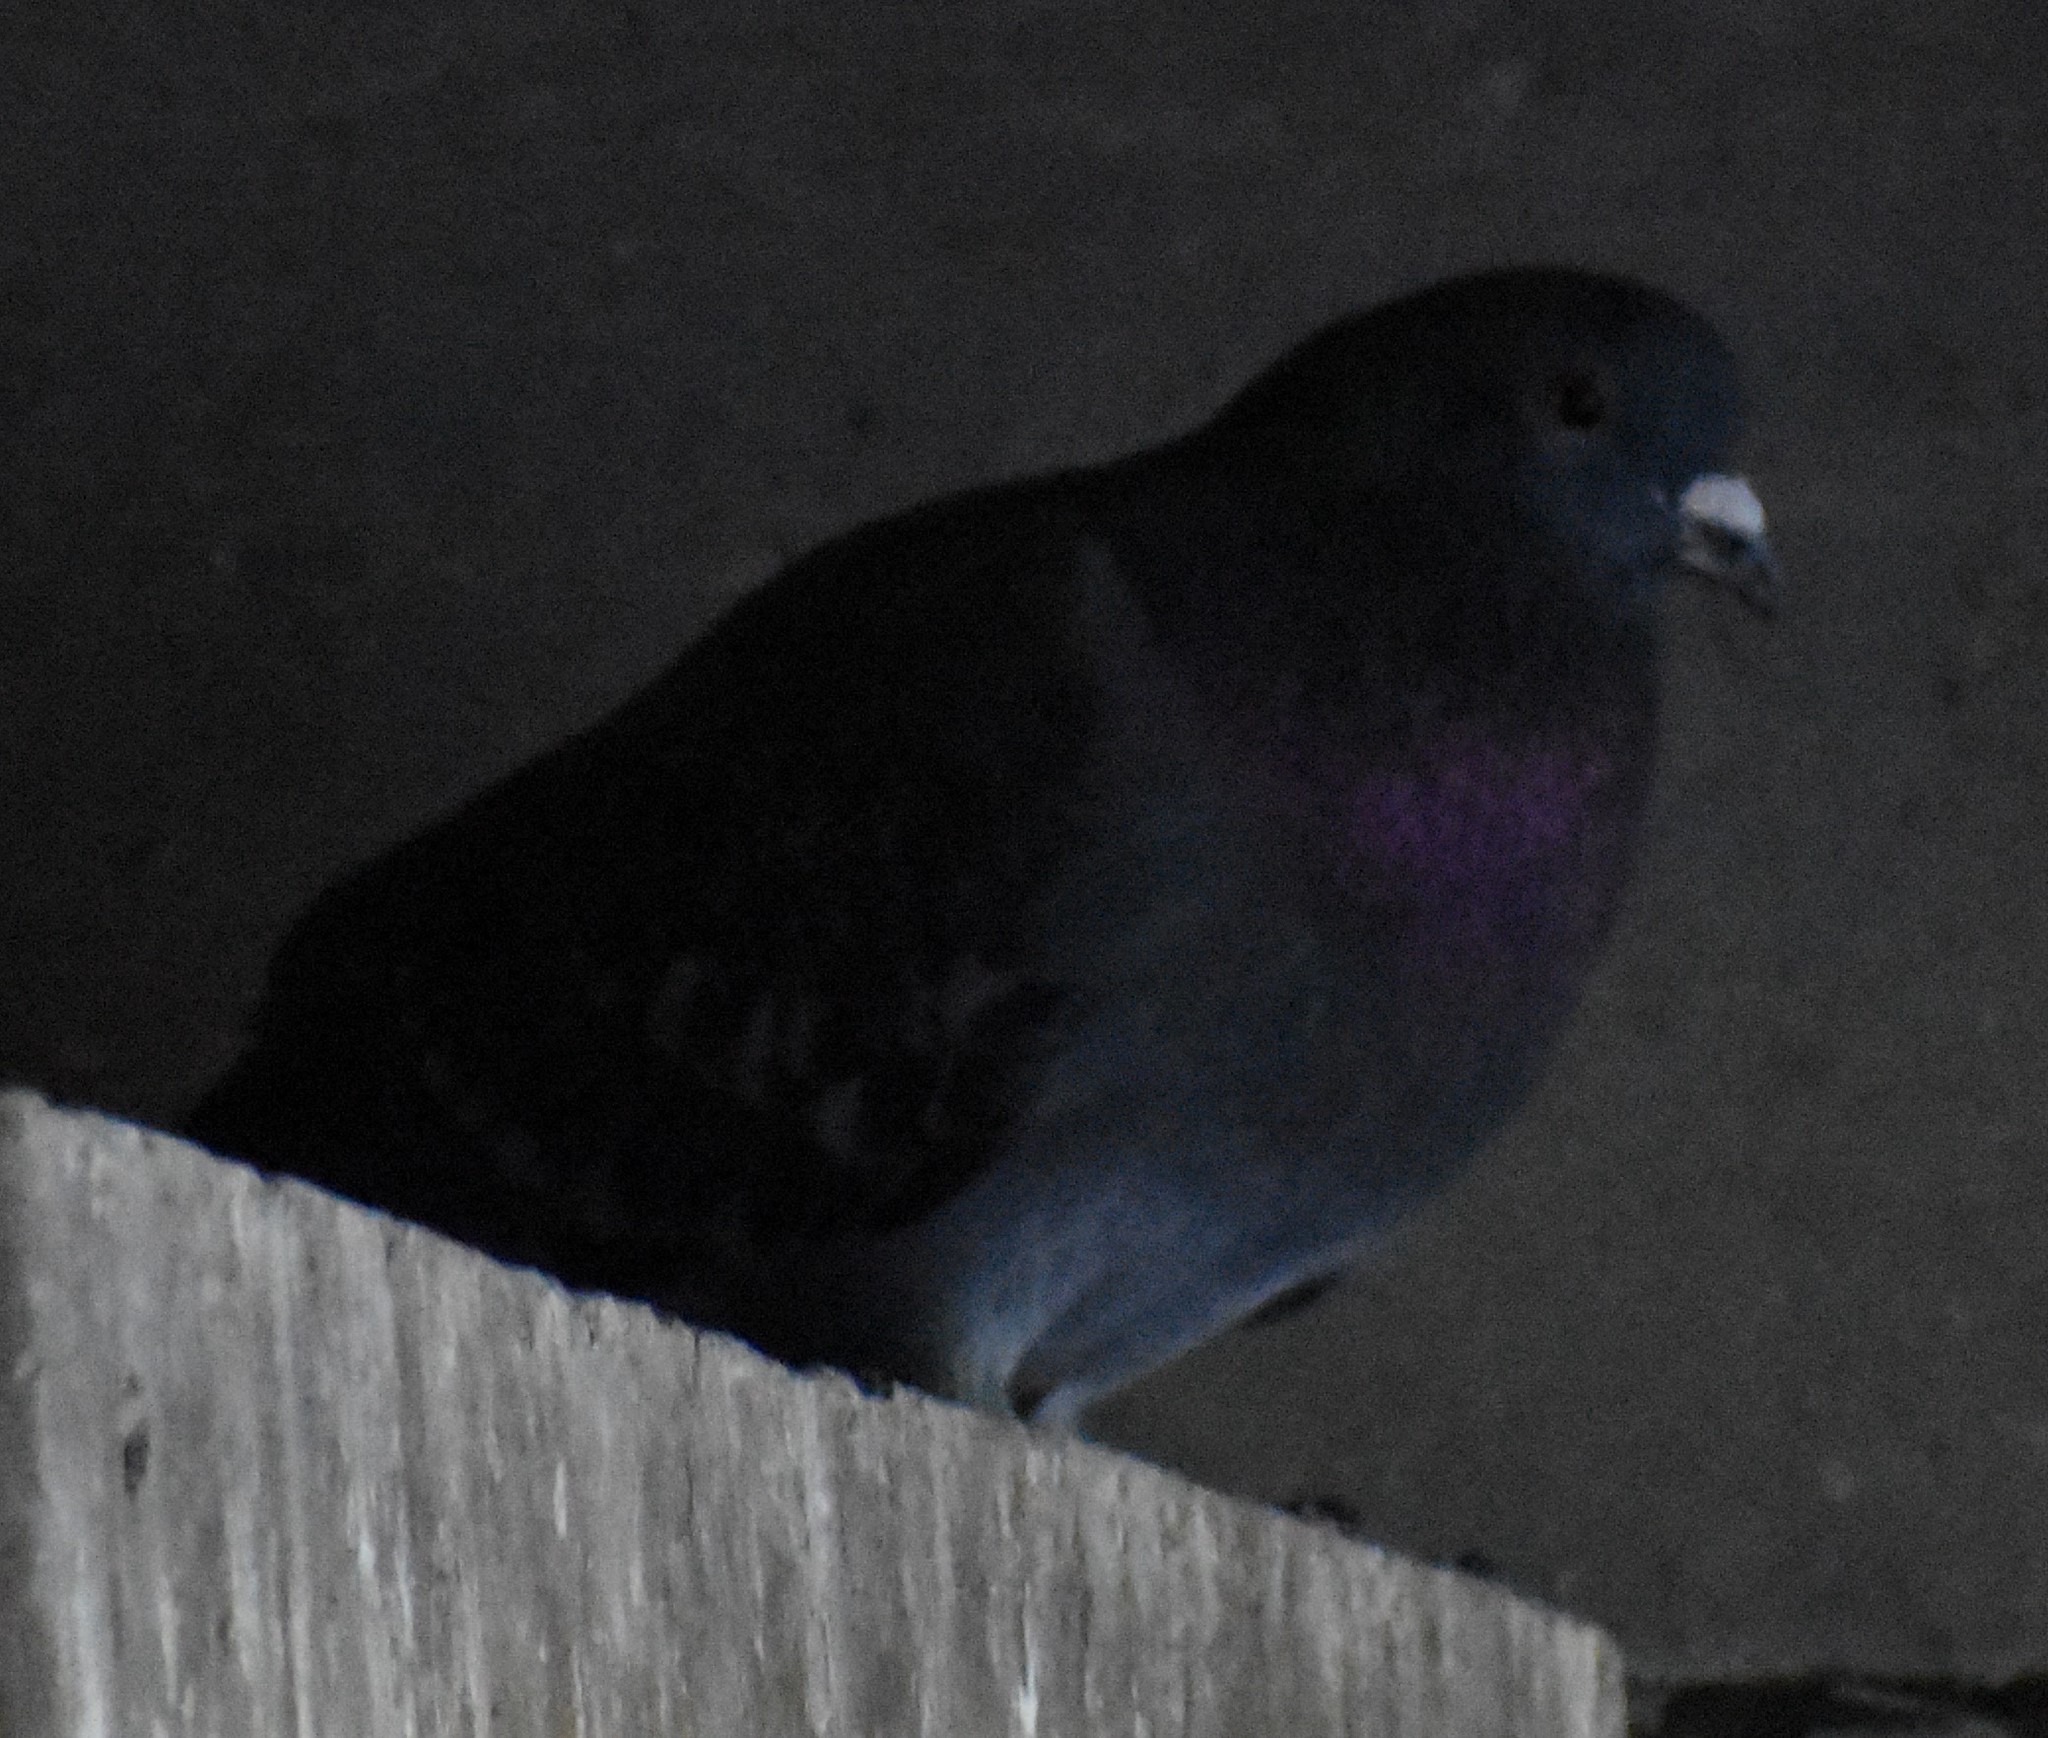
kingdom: Animalia
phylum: Chordata
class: Aves
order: Columbiformes
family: Columbidae
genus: Columba
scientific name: Columba livia
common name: Rock pigeon
